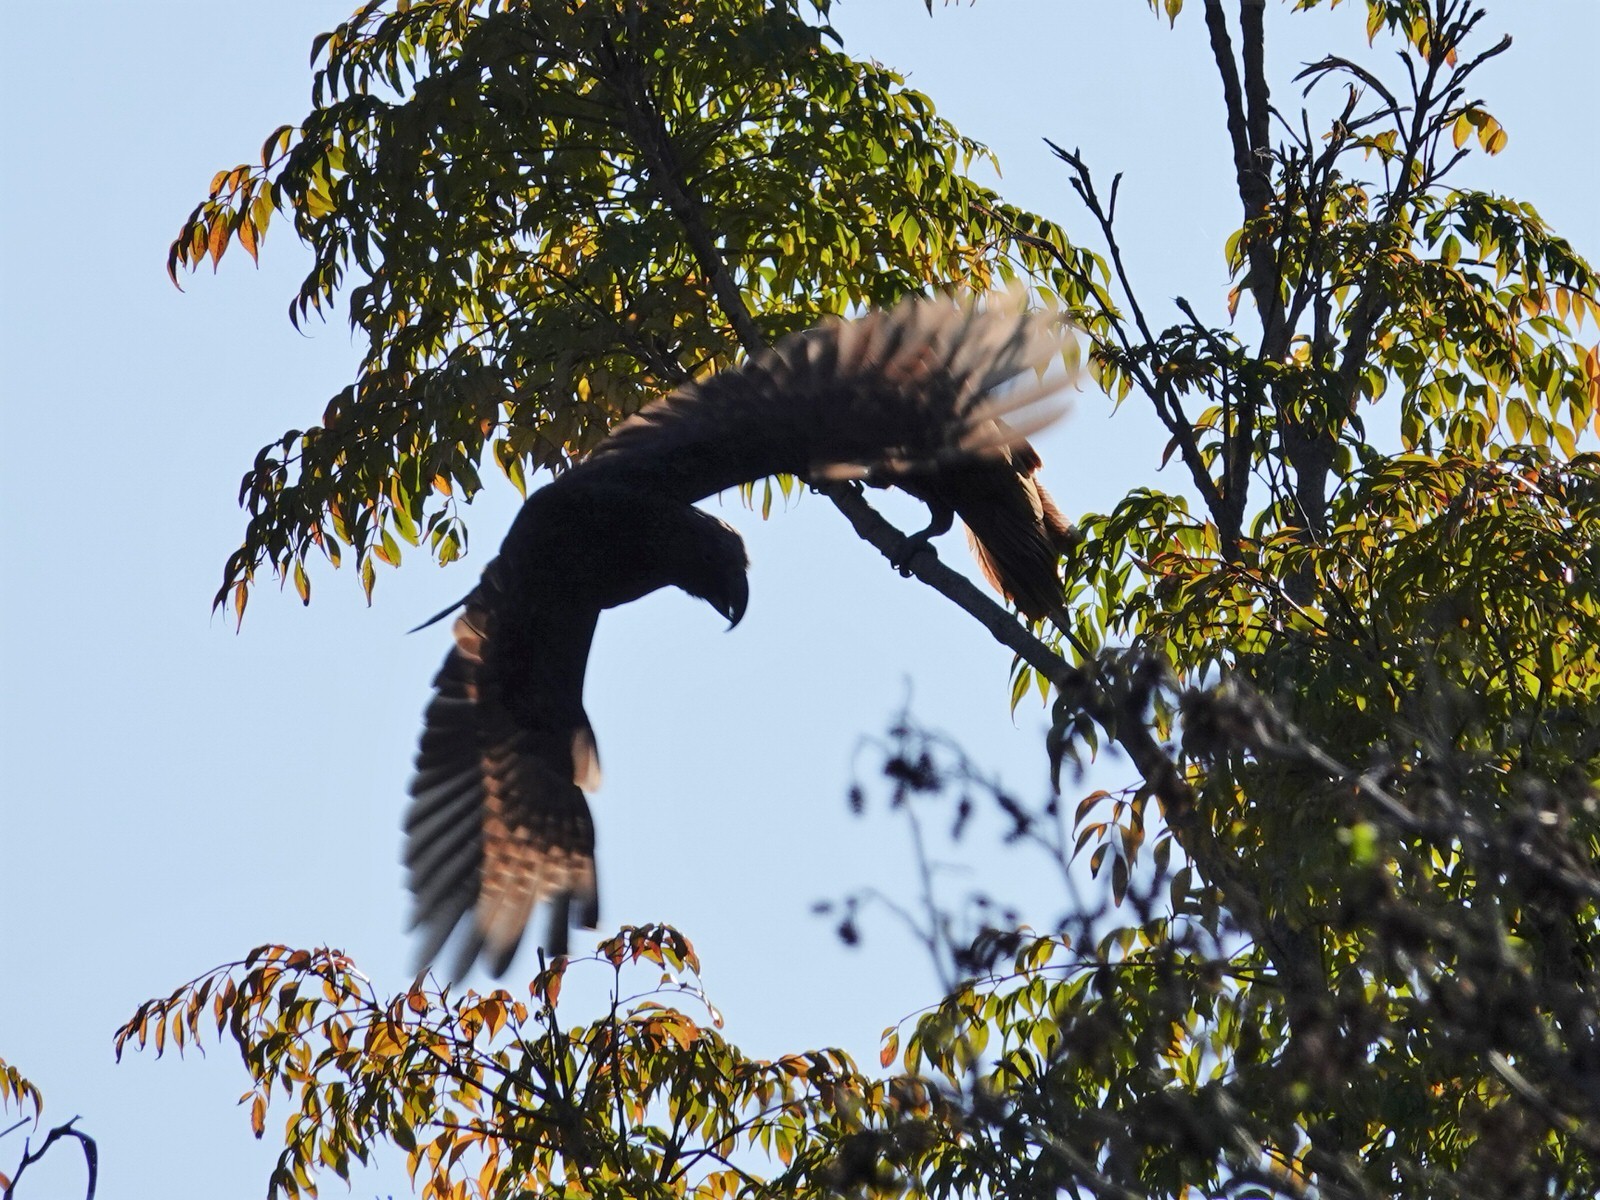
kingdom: Animalia
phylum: Chordata
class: Aves
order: Psittaciformes
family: Psittacidae
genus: Nestor
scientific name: Nestor meridionalis
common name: New zealand kaka
